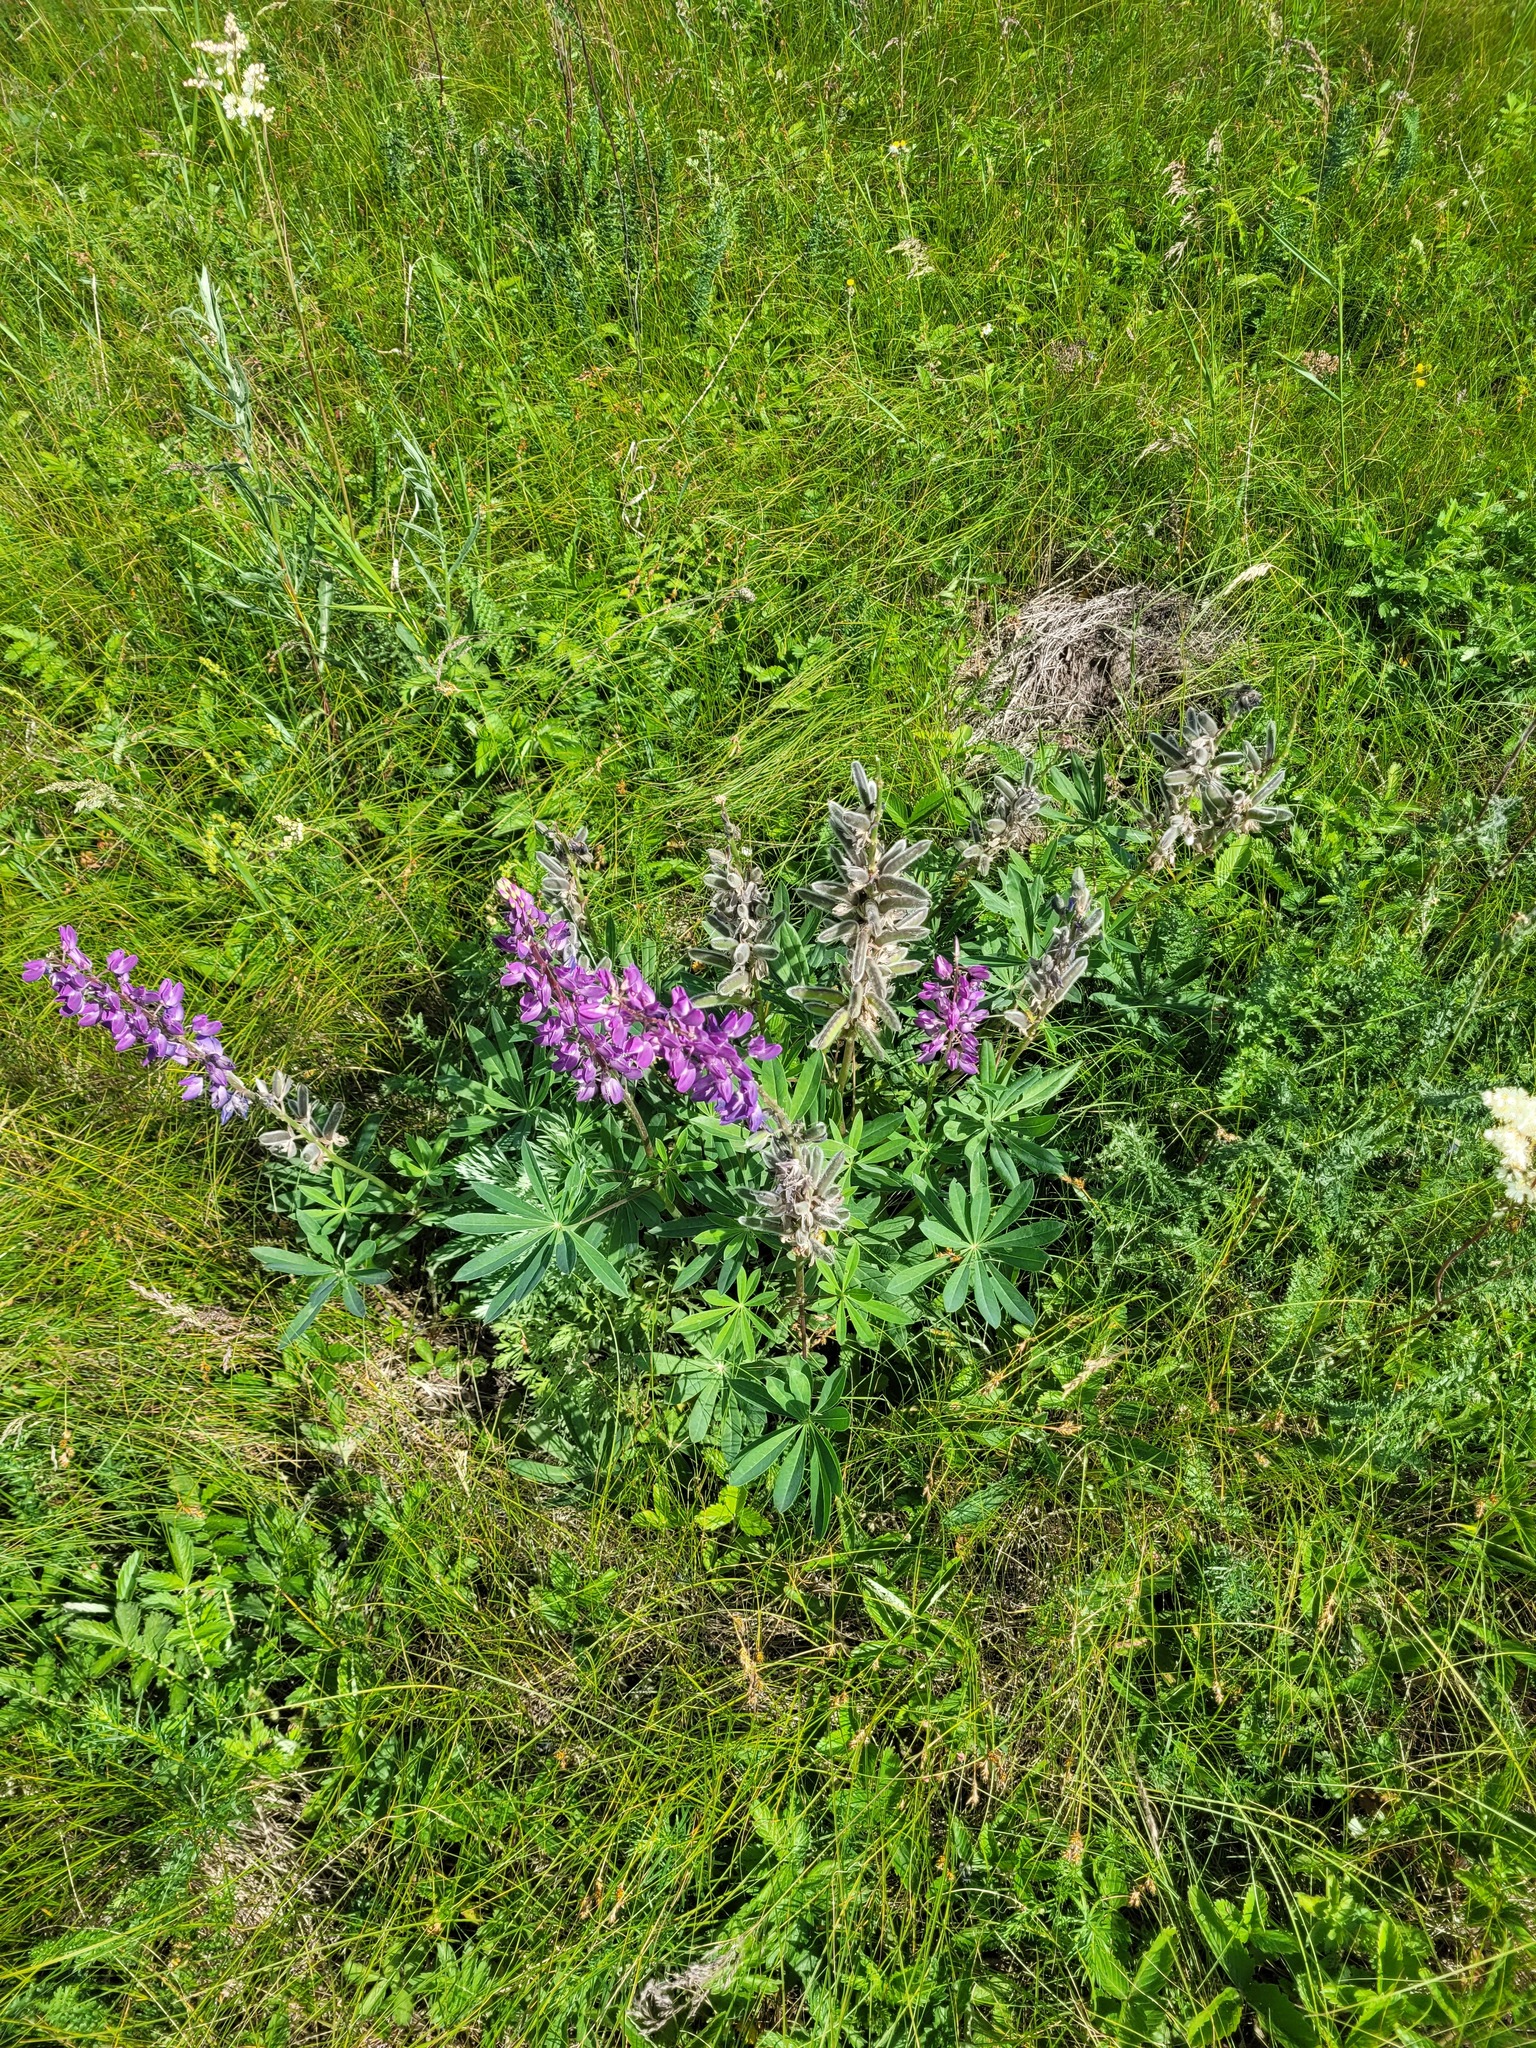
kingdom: Plantae
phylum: Tracheophyta
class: Magnoliopsida
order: Fabales
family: Fabaceae
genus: Lupinus
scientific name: Lupinus polyphyllus
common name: Garden lupin
